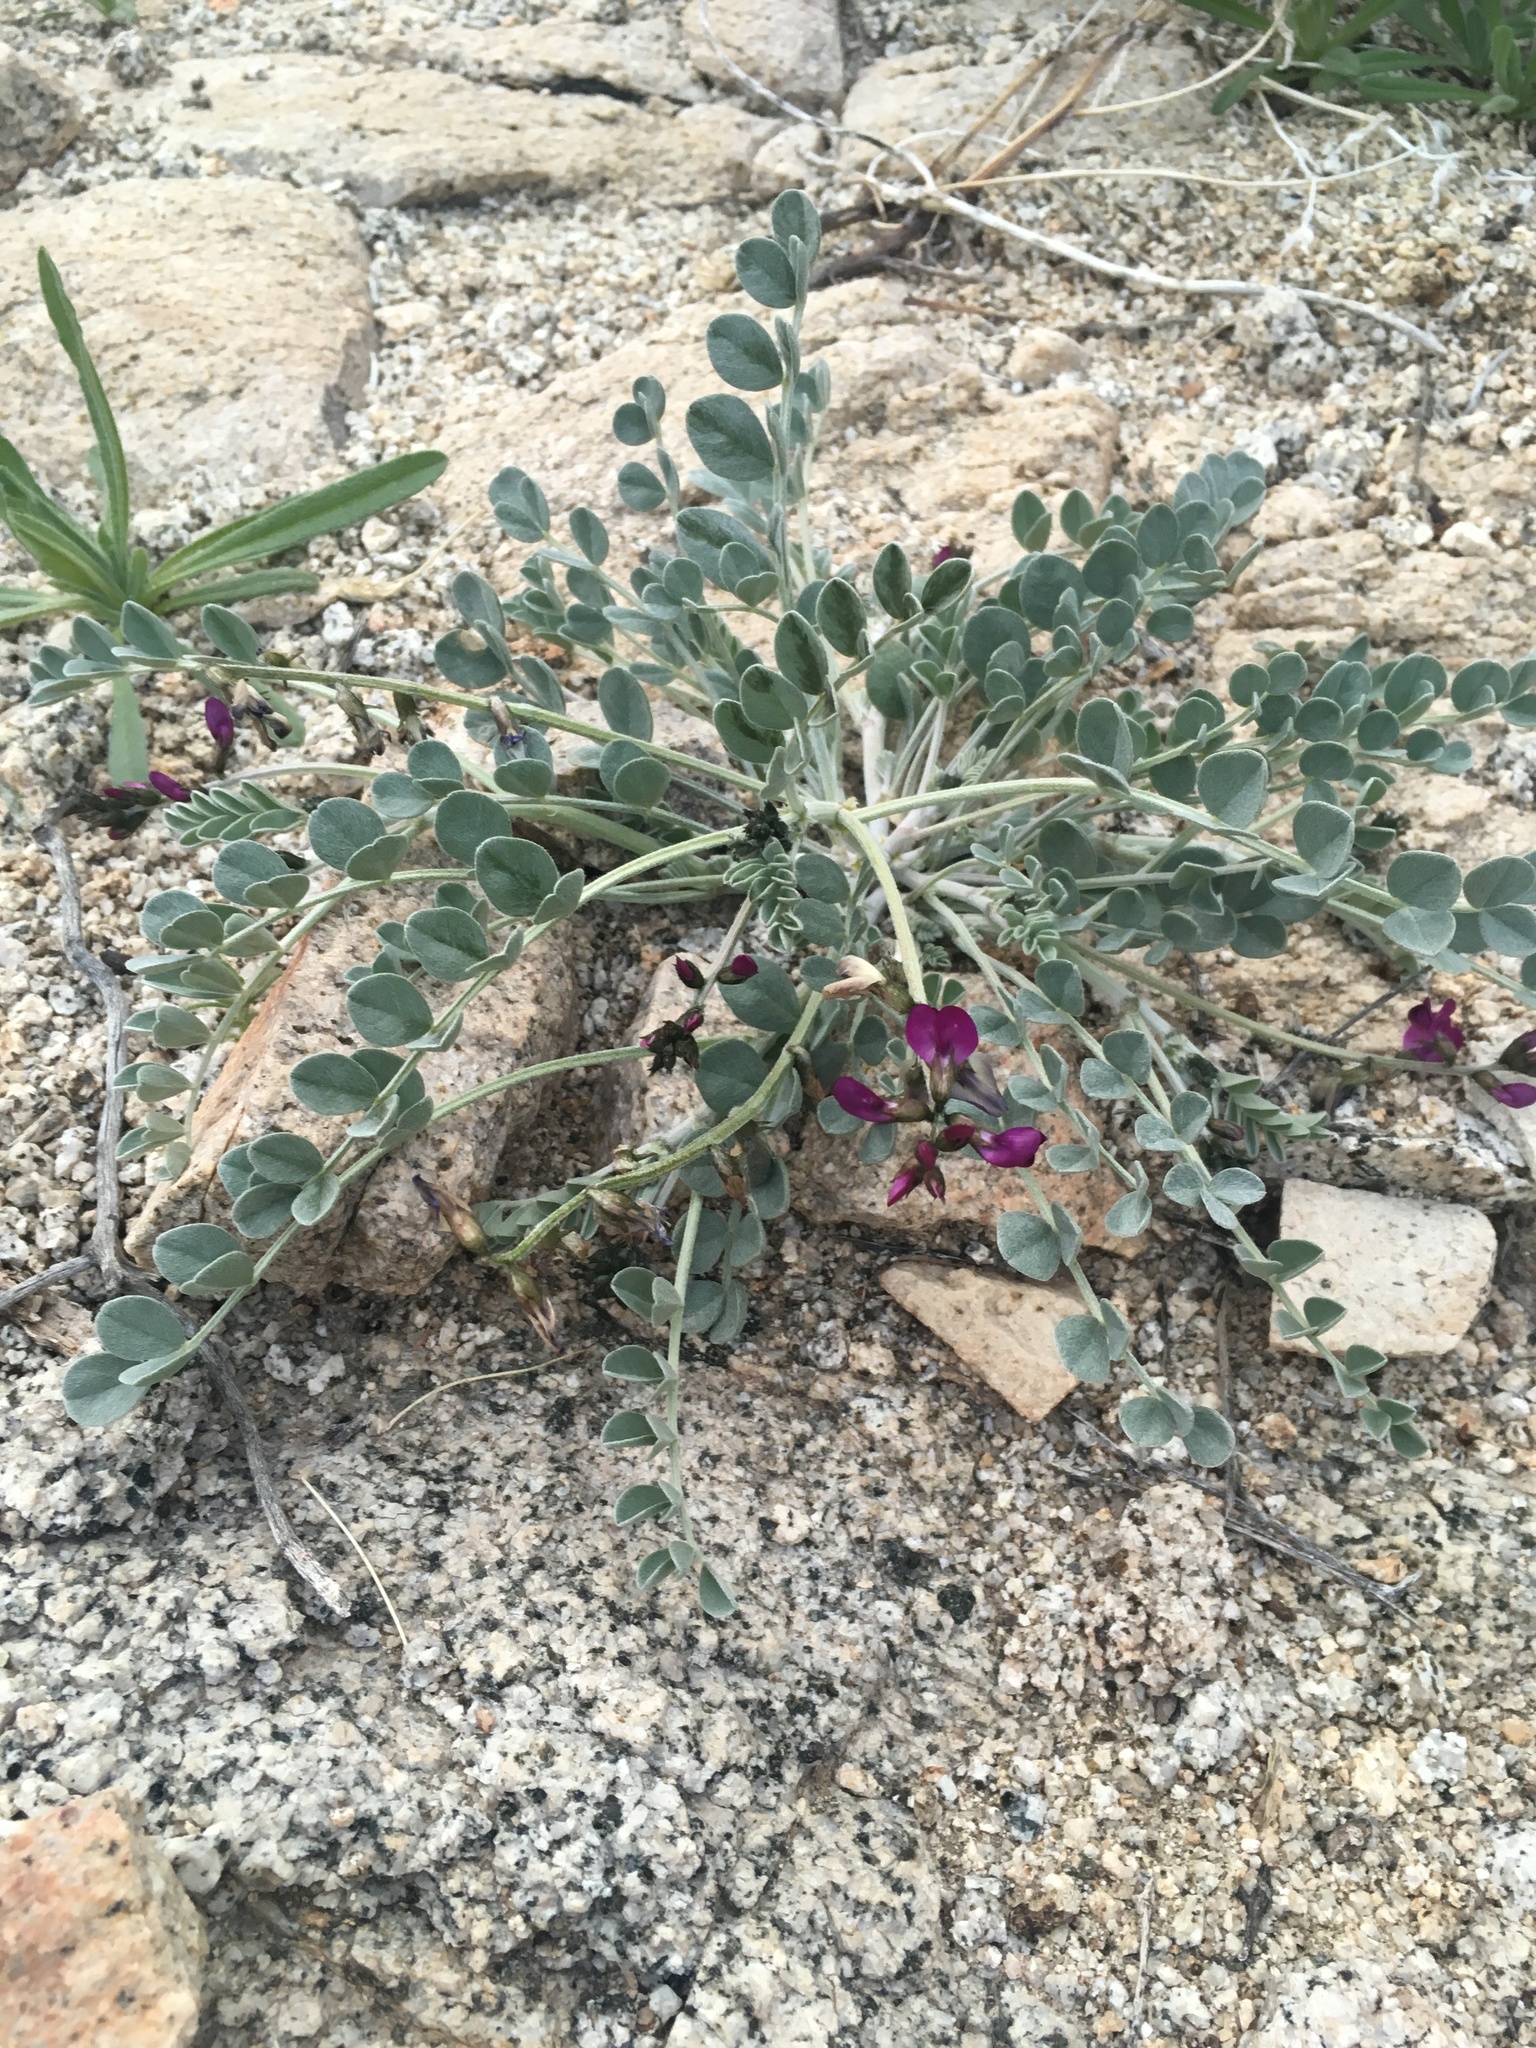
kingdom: Plantae
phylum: Tracheophyta
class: Magnoliopsida
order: Fabales
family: Fabaceae
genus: Astragalus
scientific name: Astragalus mohavensis
